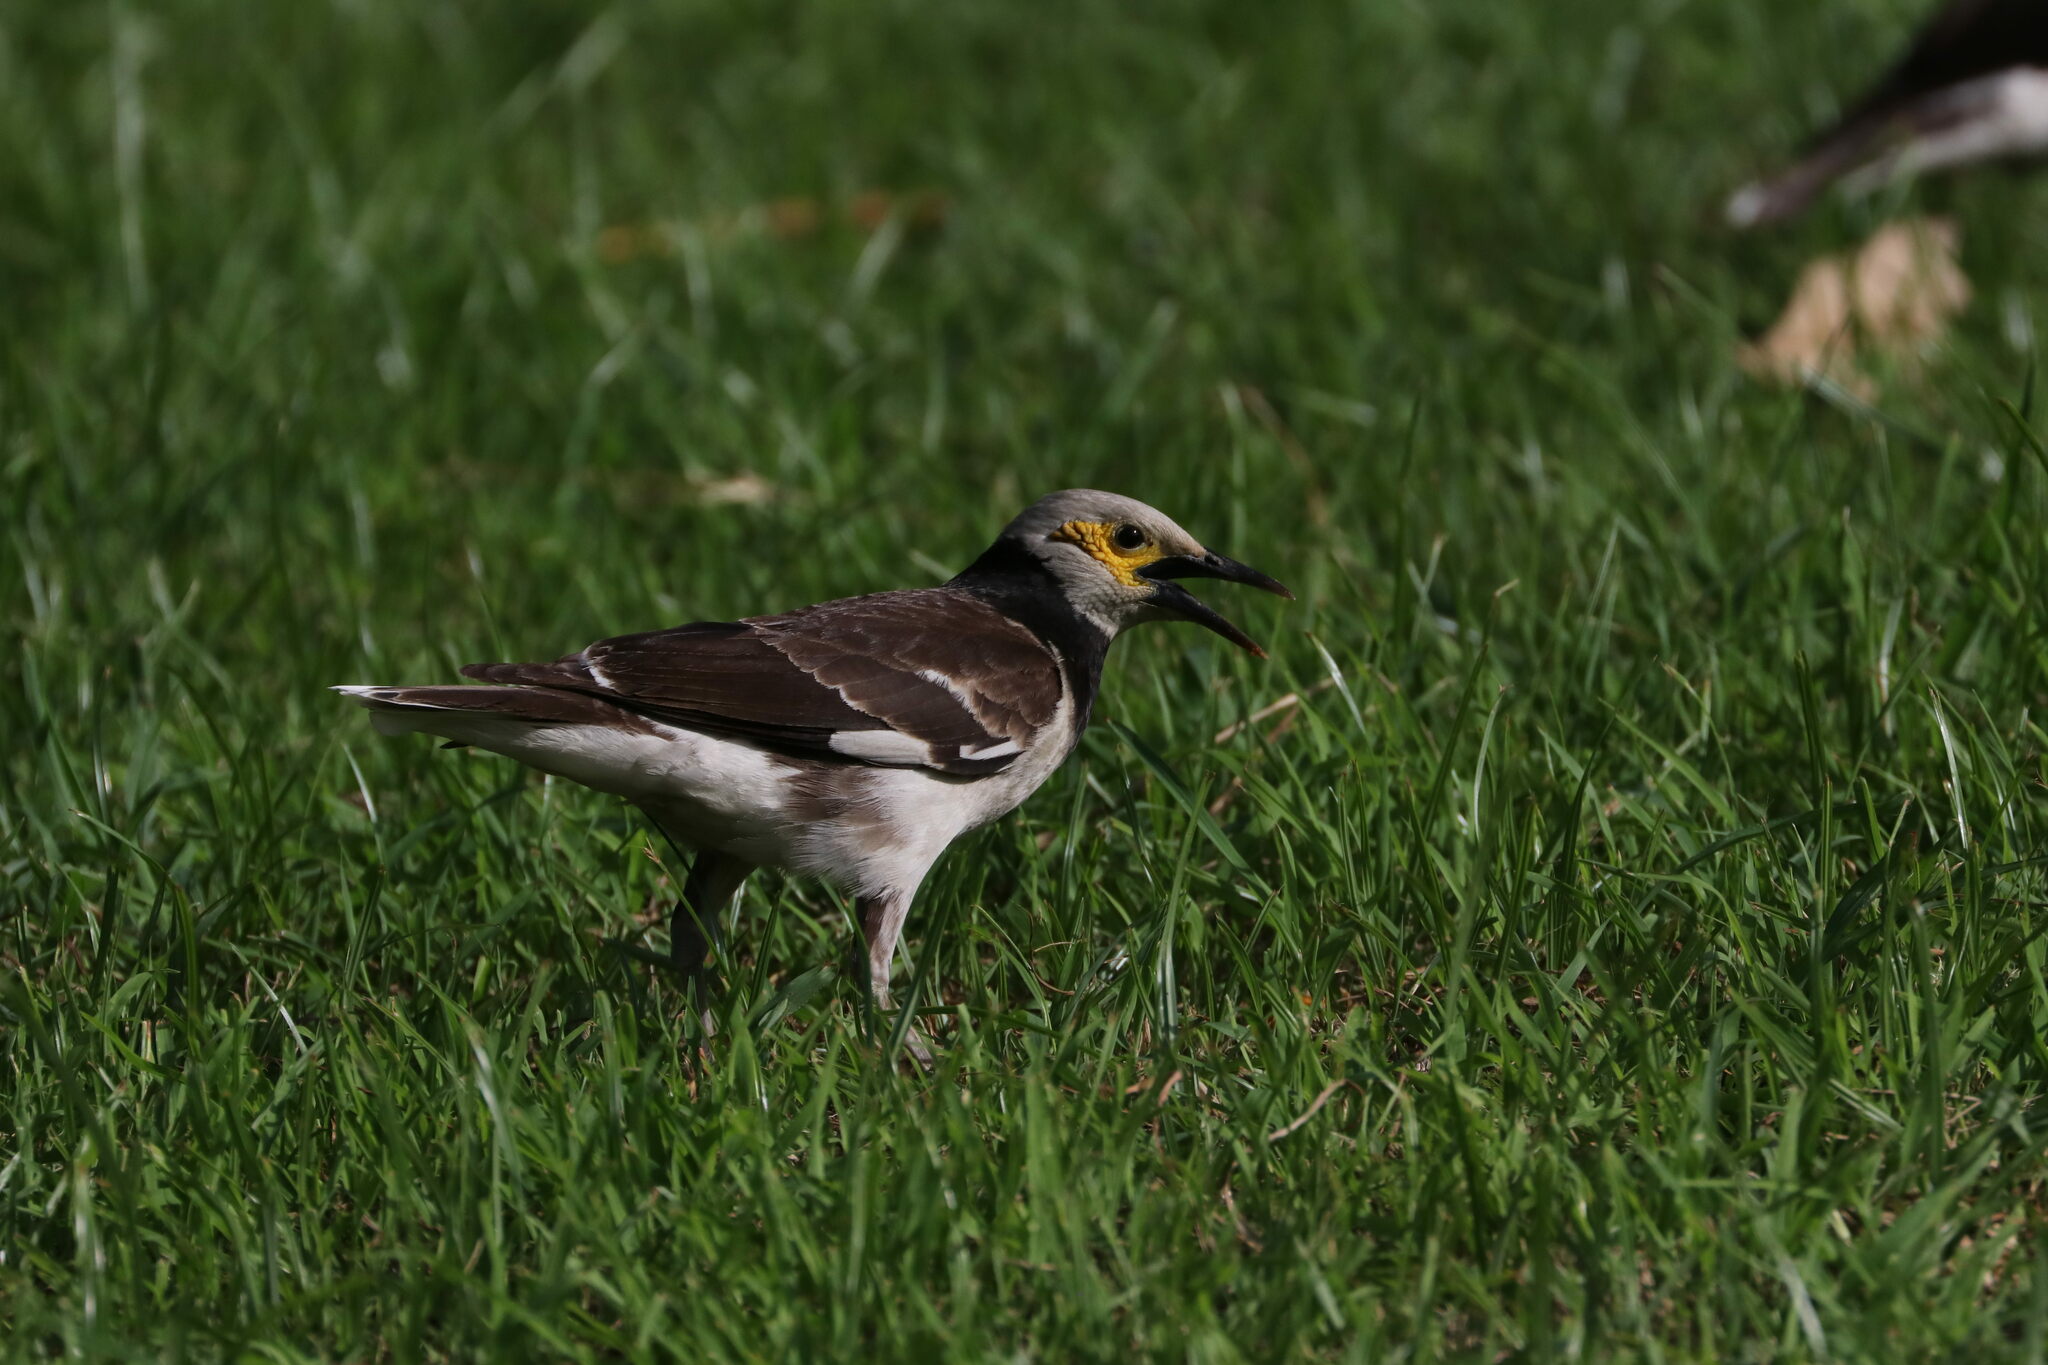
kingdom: Animalia
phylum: Chordata
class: Aves
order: Passeriformes
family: Sturnidae
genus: Gracupica
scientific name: Gracupica nigricollis
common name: Black-collared starling
